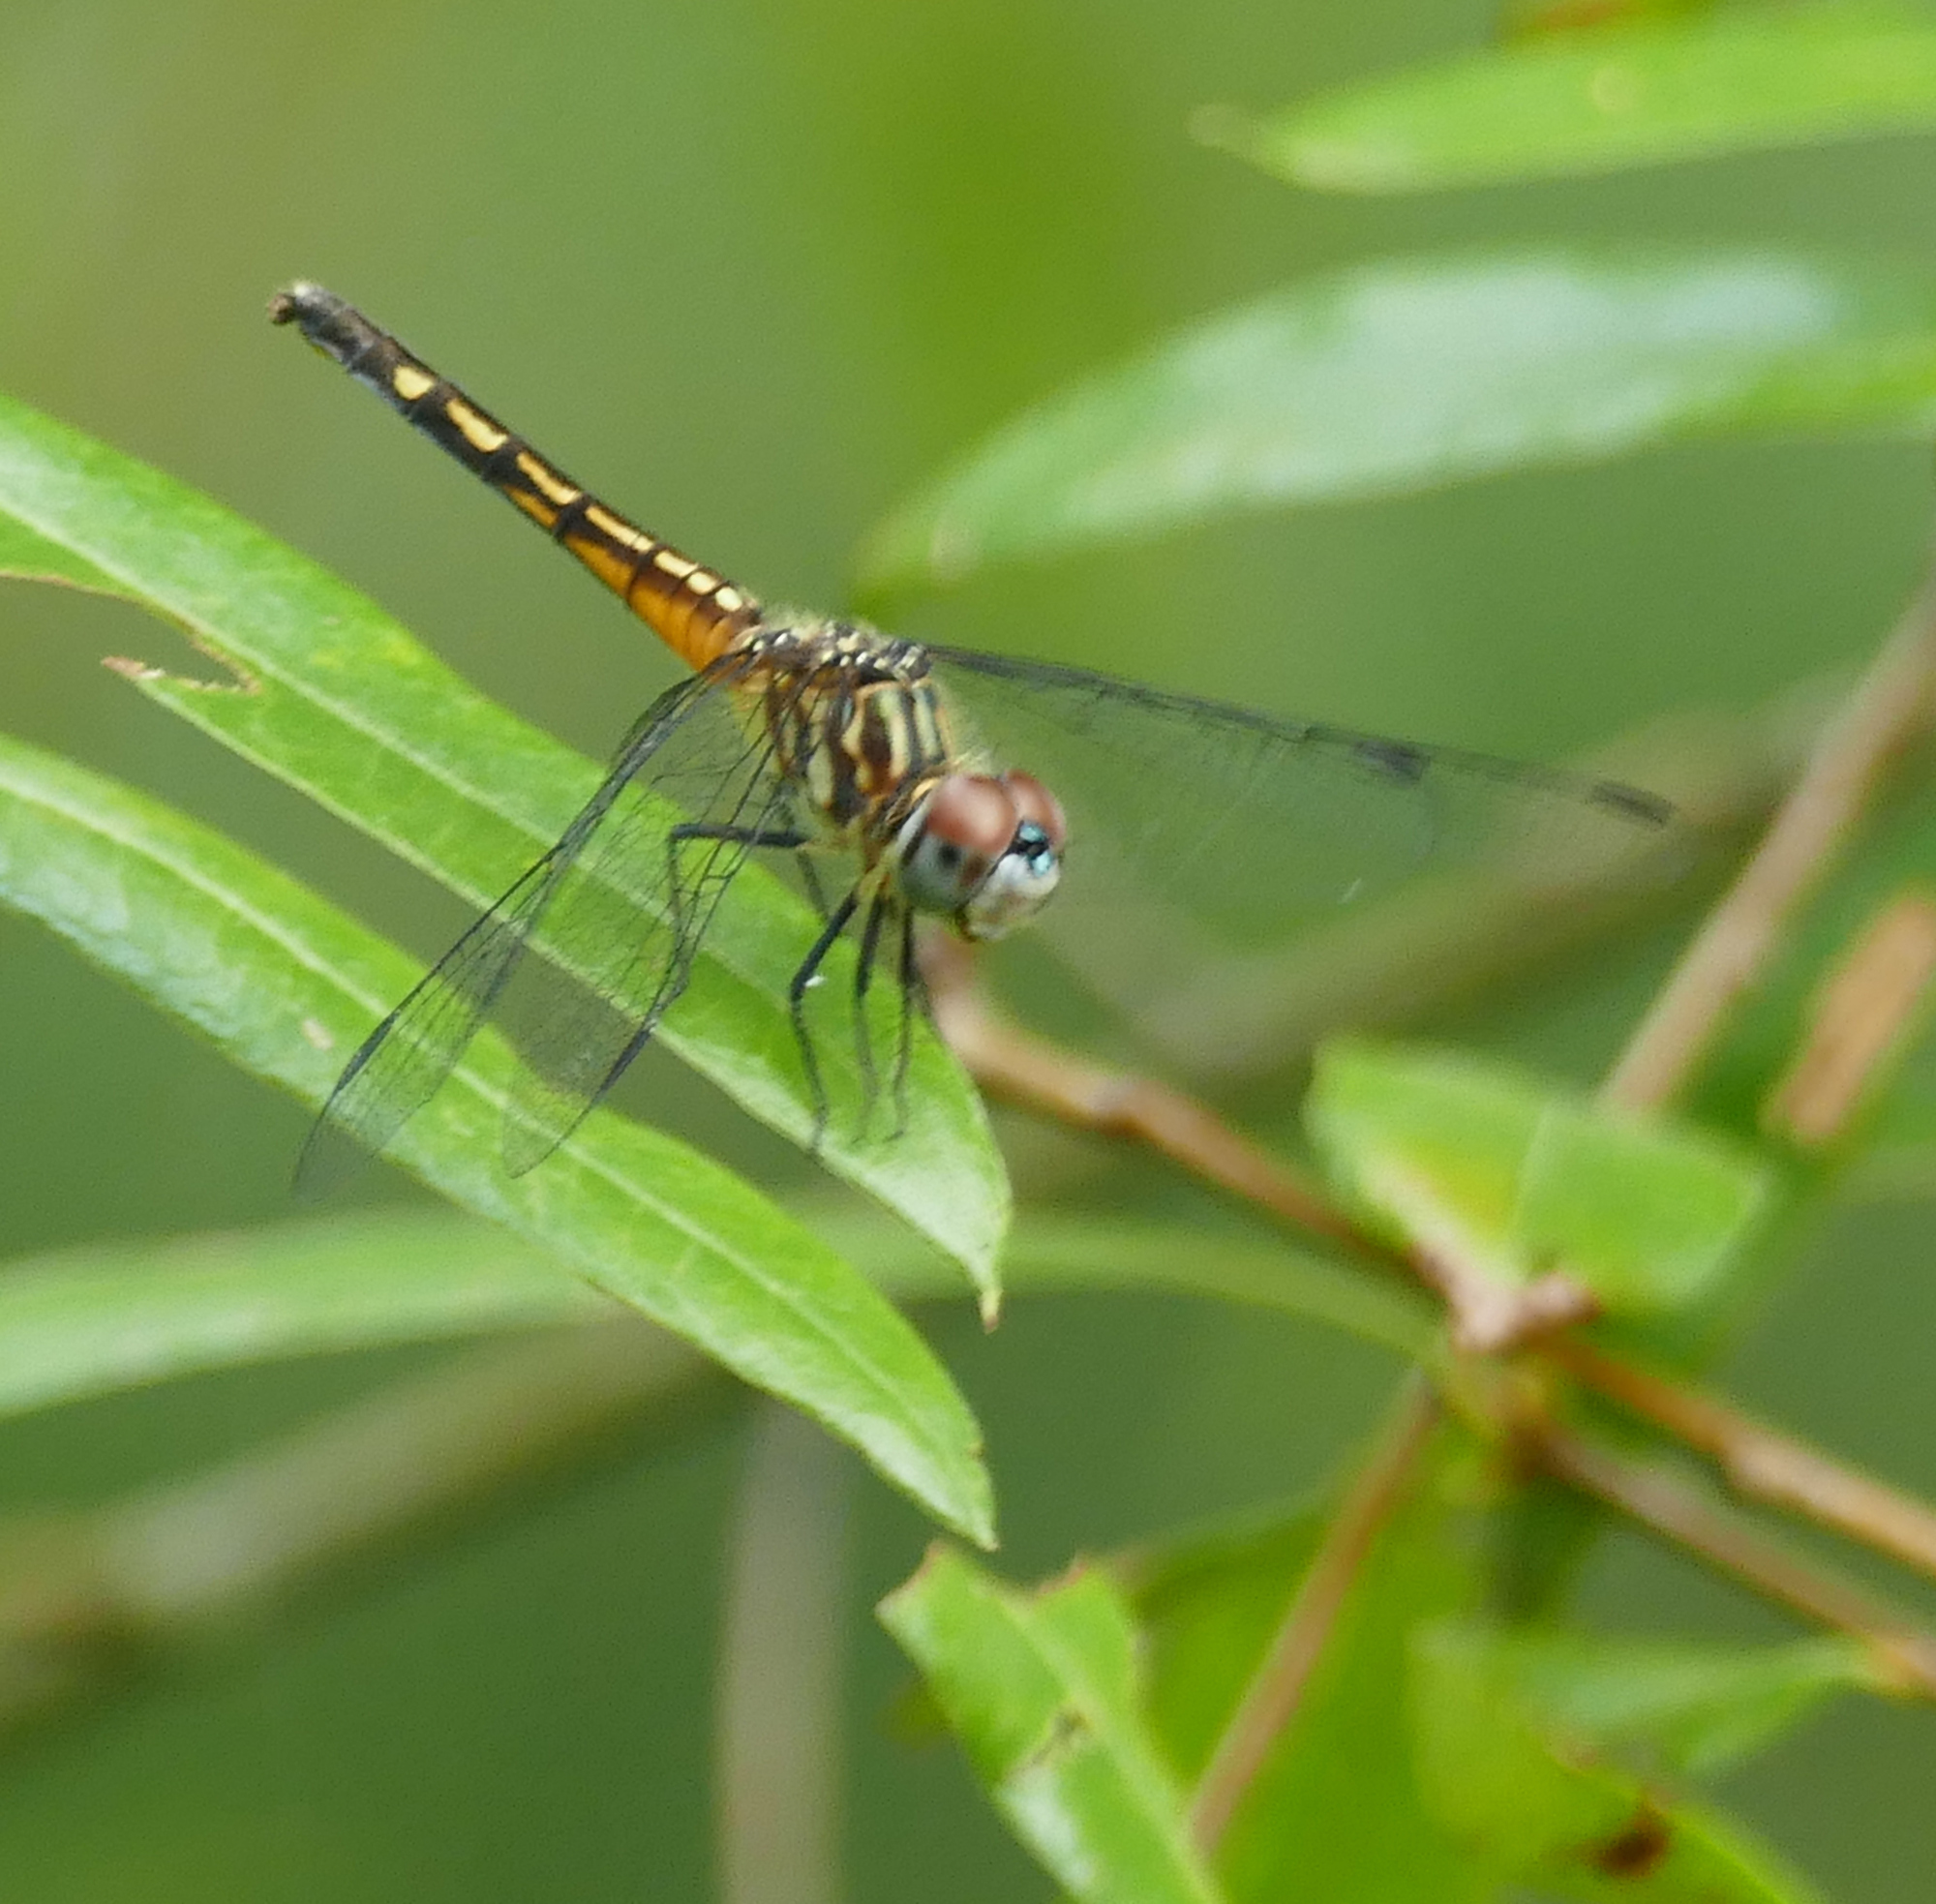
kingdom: Animalia
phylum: Arthropoda
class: Insecta
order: Odonata
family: Libellulidae
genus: Pachydiplax
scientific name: Pachydiplax longipennis
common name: Blue dasher
